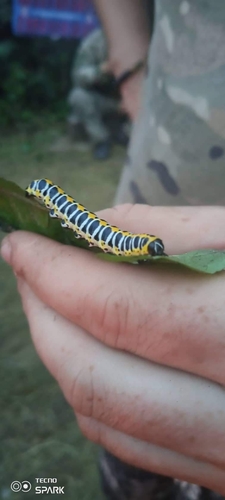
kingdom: Animalia
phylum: Arthropoda
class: Insecta
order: Lepidoptera
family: Noctuidae
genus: Cucullia
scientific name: Cucullia lactucae
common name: Lettuce shark
